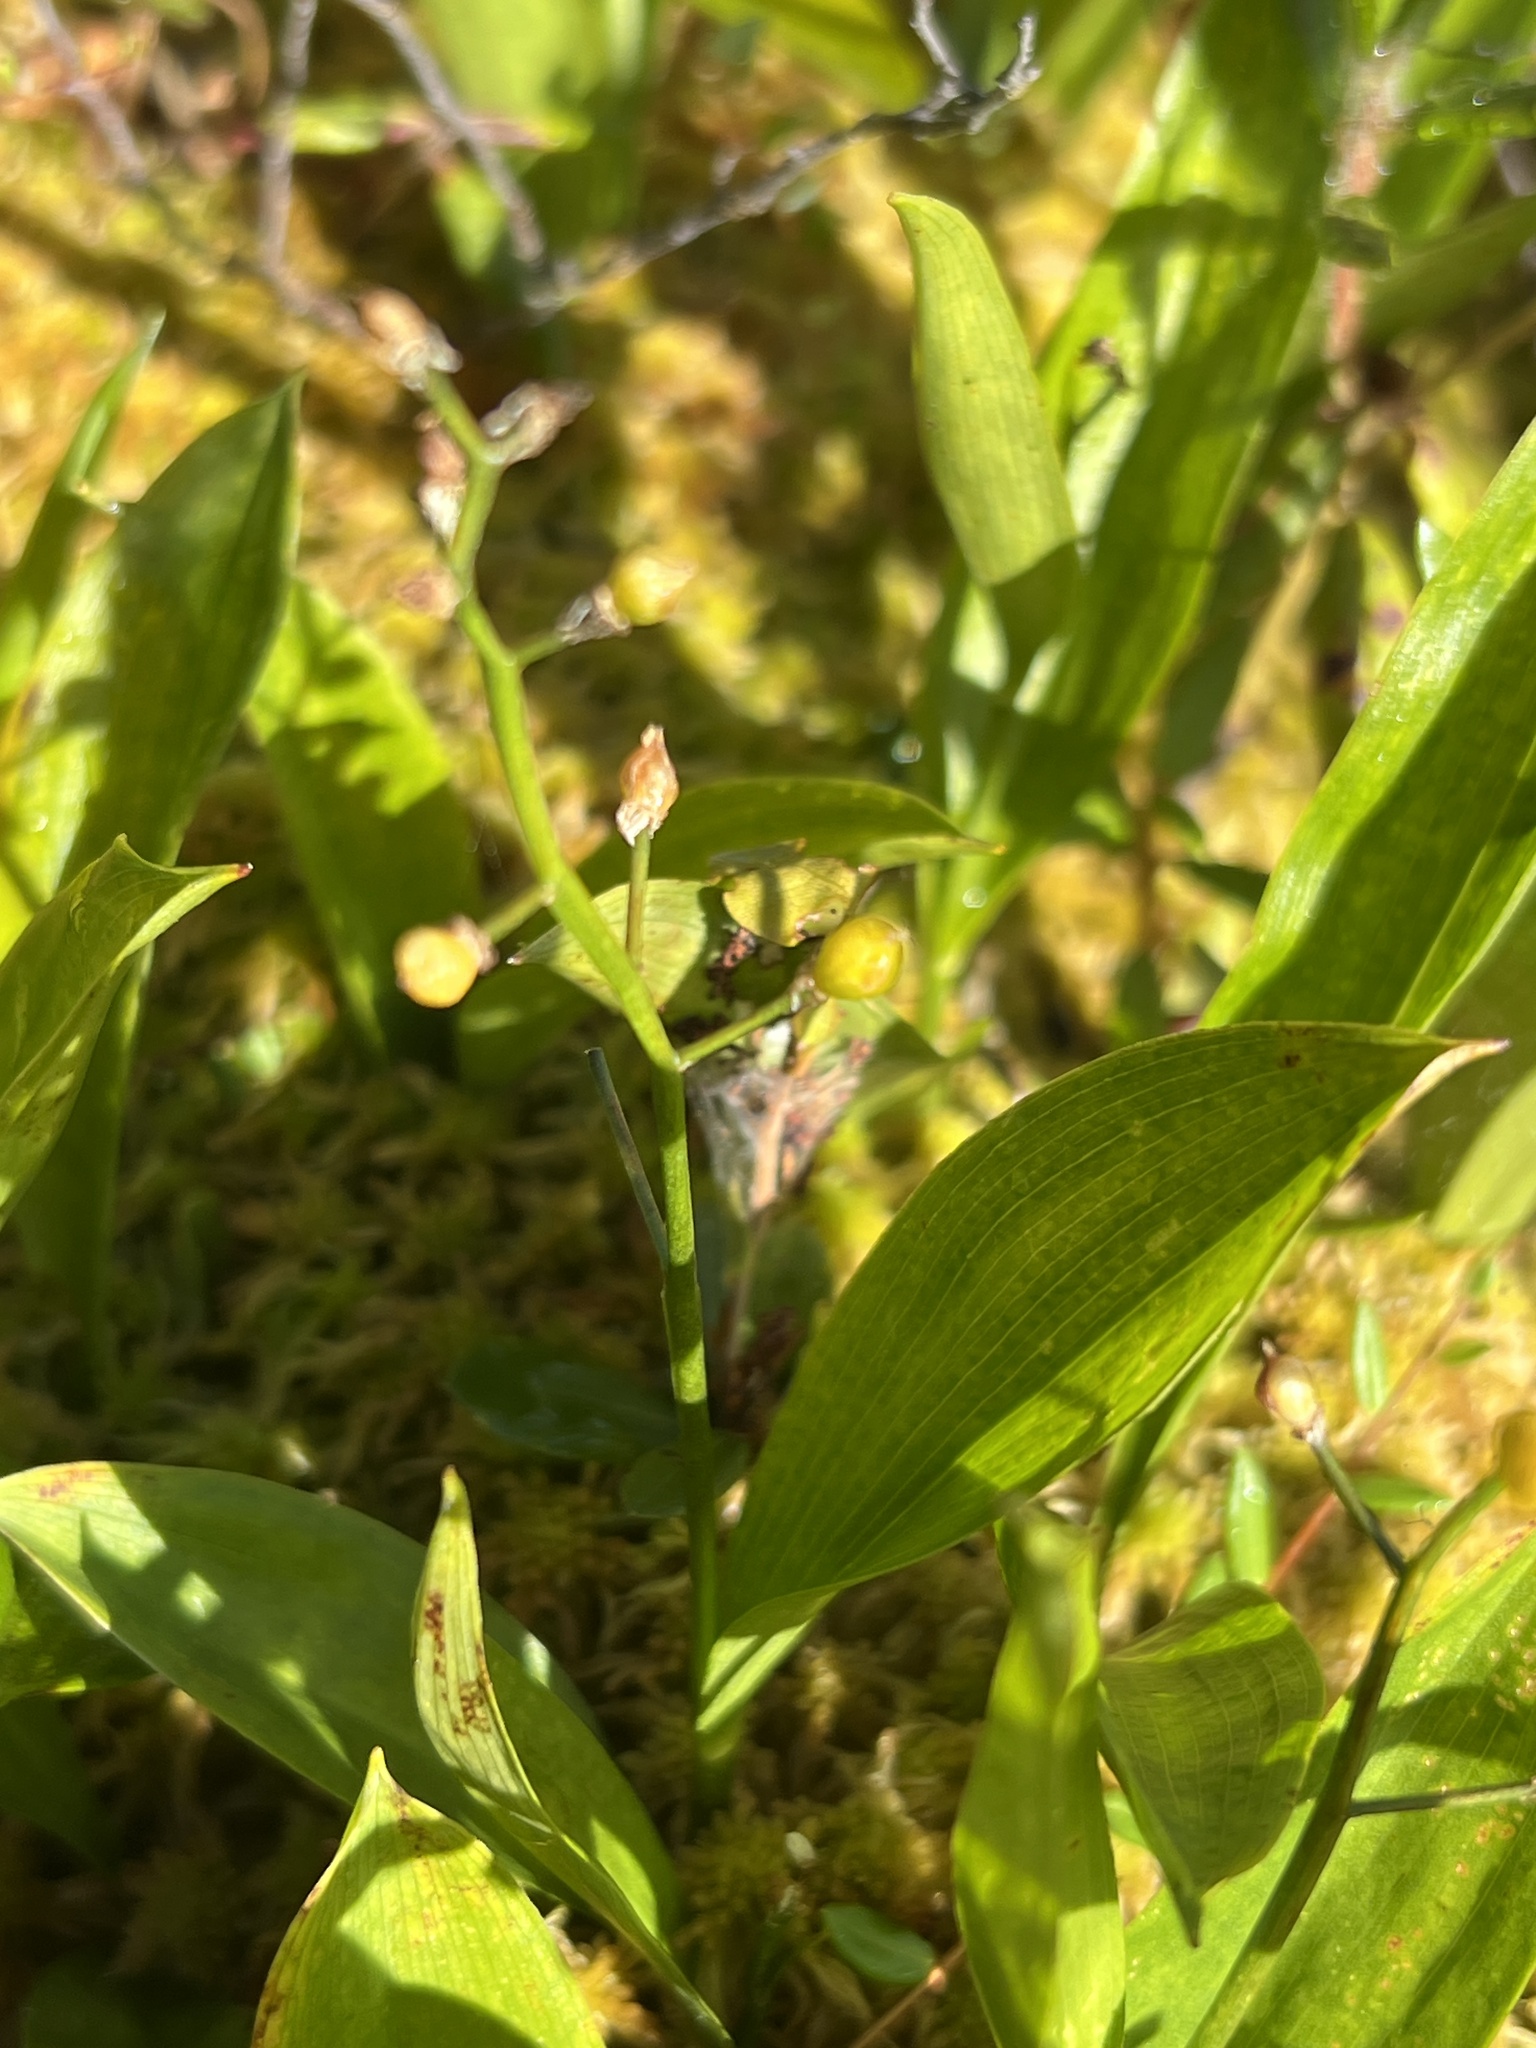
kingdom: Plantae
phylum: Tracheophyta
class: Liliopsida
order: Asparagales
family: Asparagaceae
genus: Maianthemum
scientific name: Maianthemum trifolium
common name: Swamp false solomon's seal
